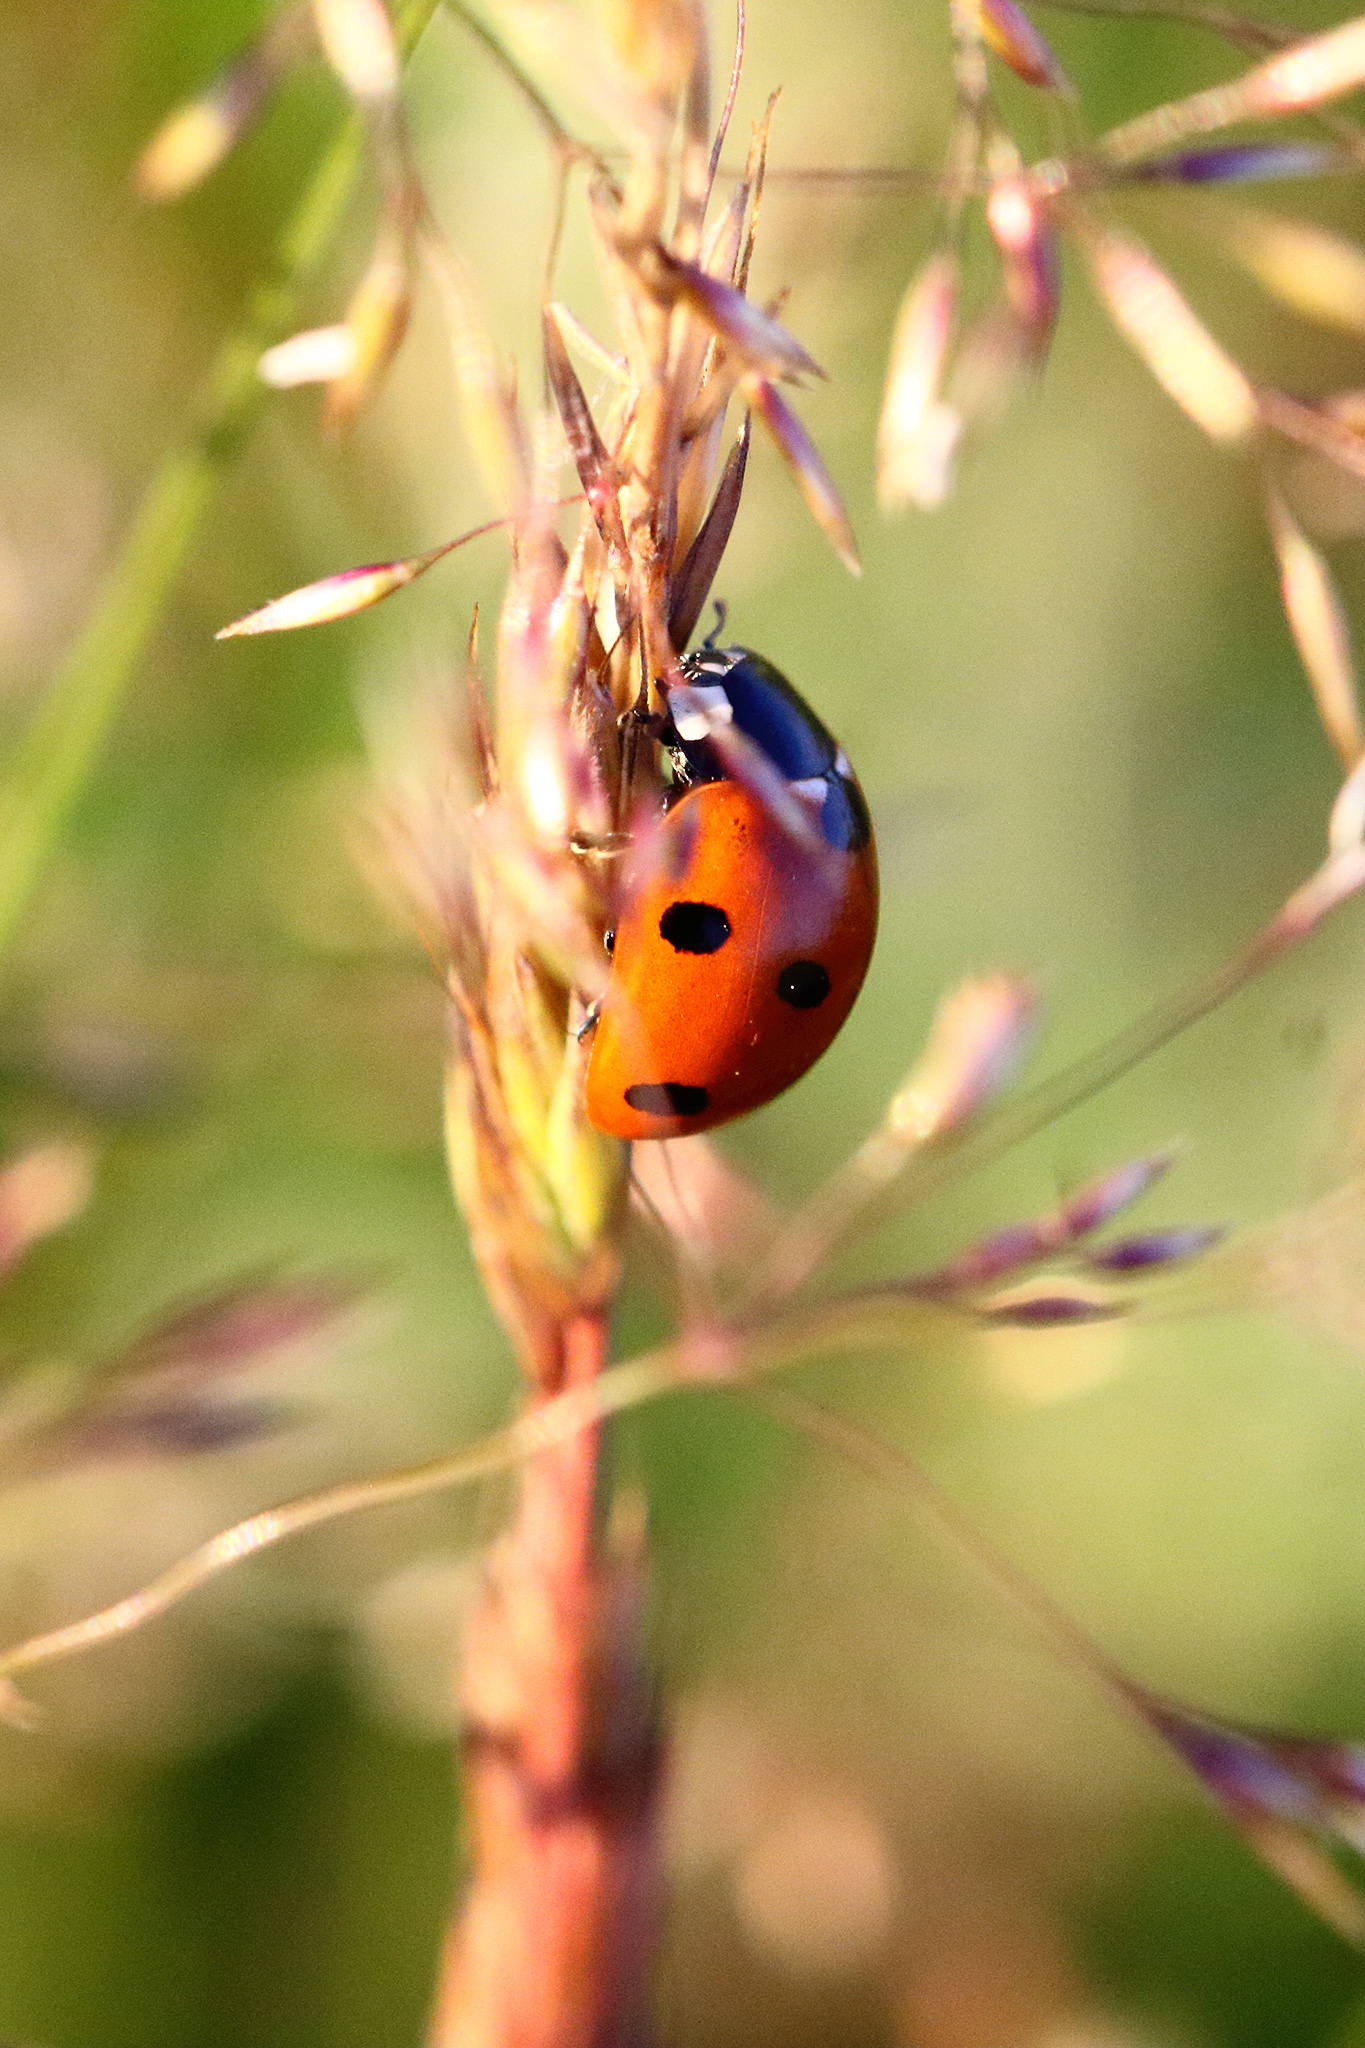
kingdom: Animalia
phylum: Arthropoda
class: Insecta
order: Coleoptera
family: Coccinellidae
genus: Coccinella
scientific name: Coccinella septempunctata
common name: Sevenspotted lady beetle
